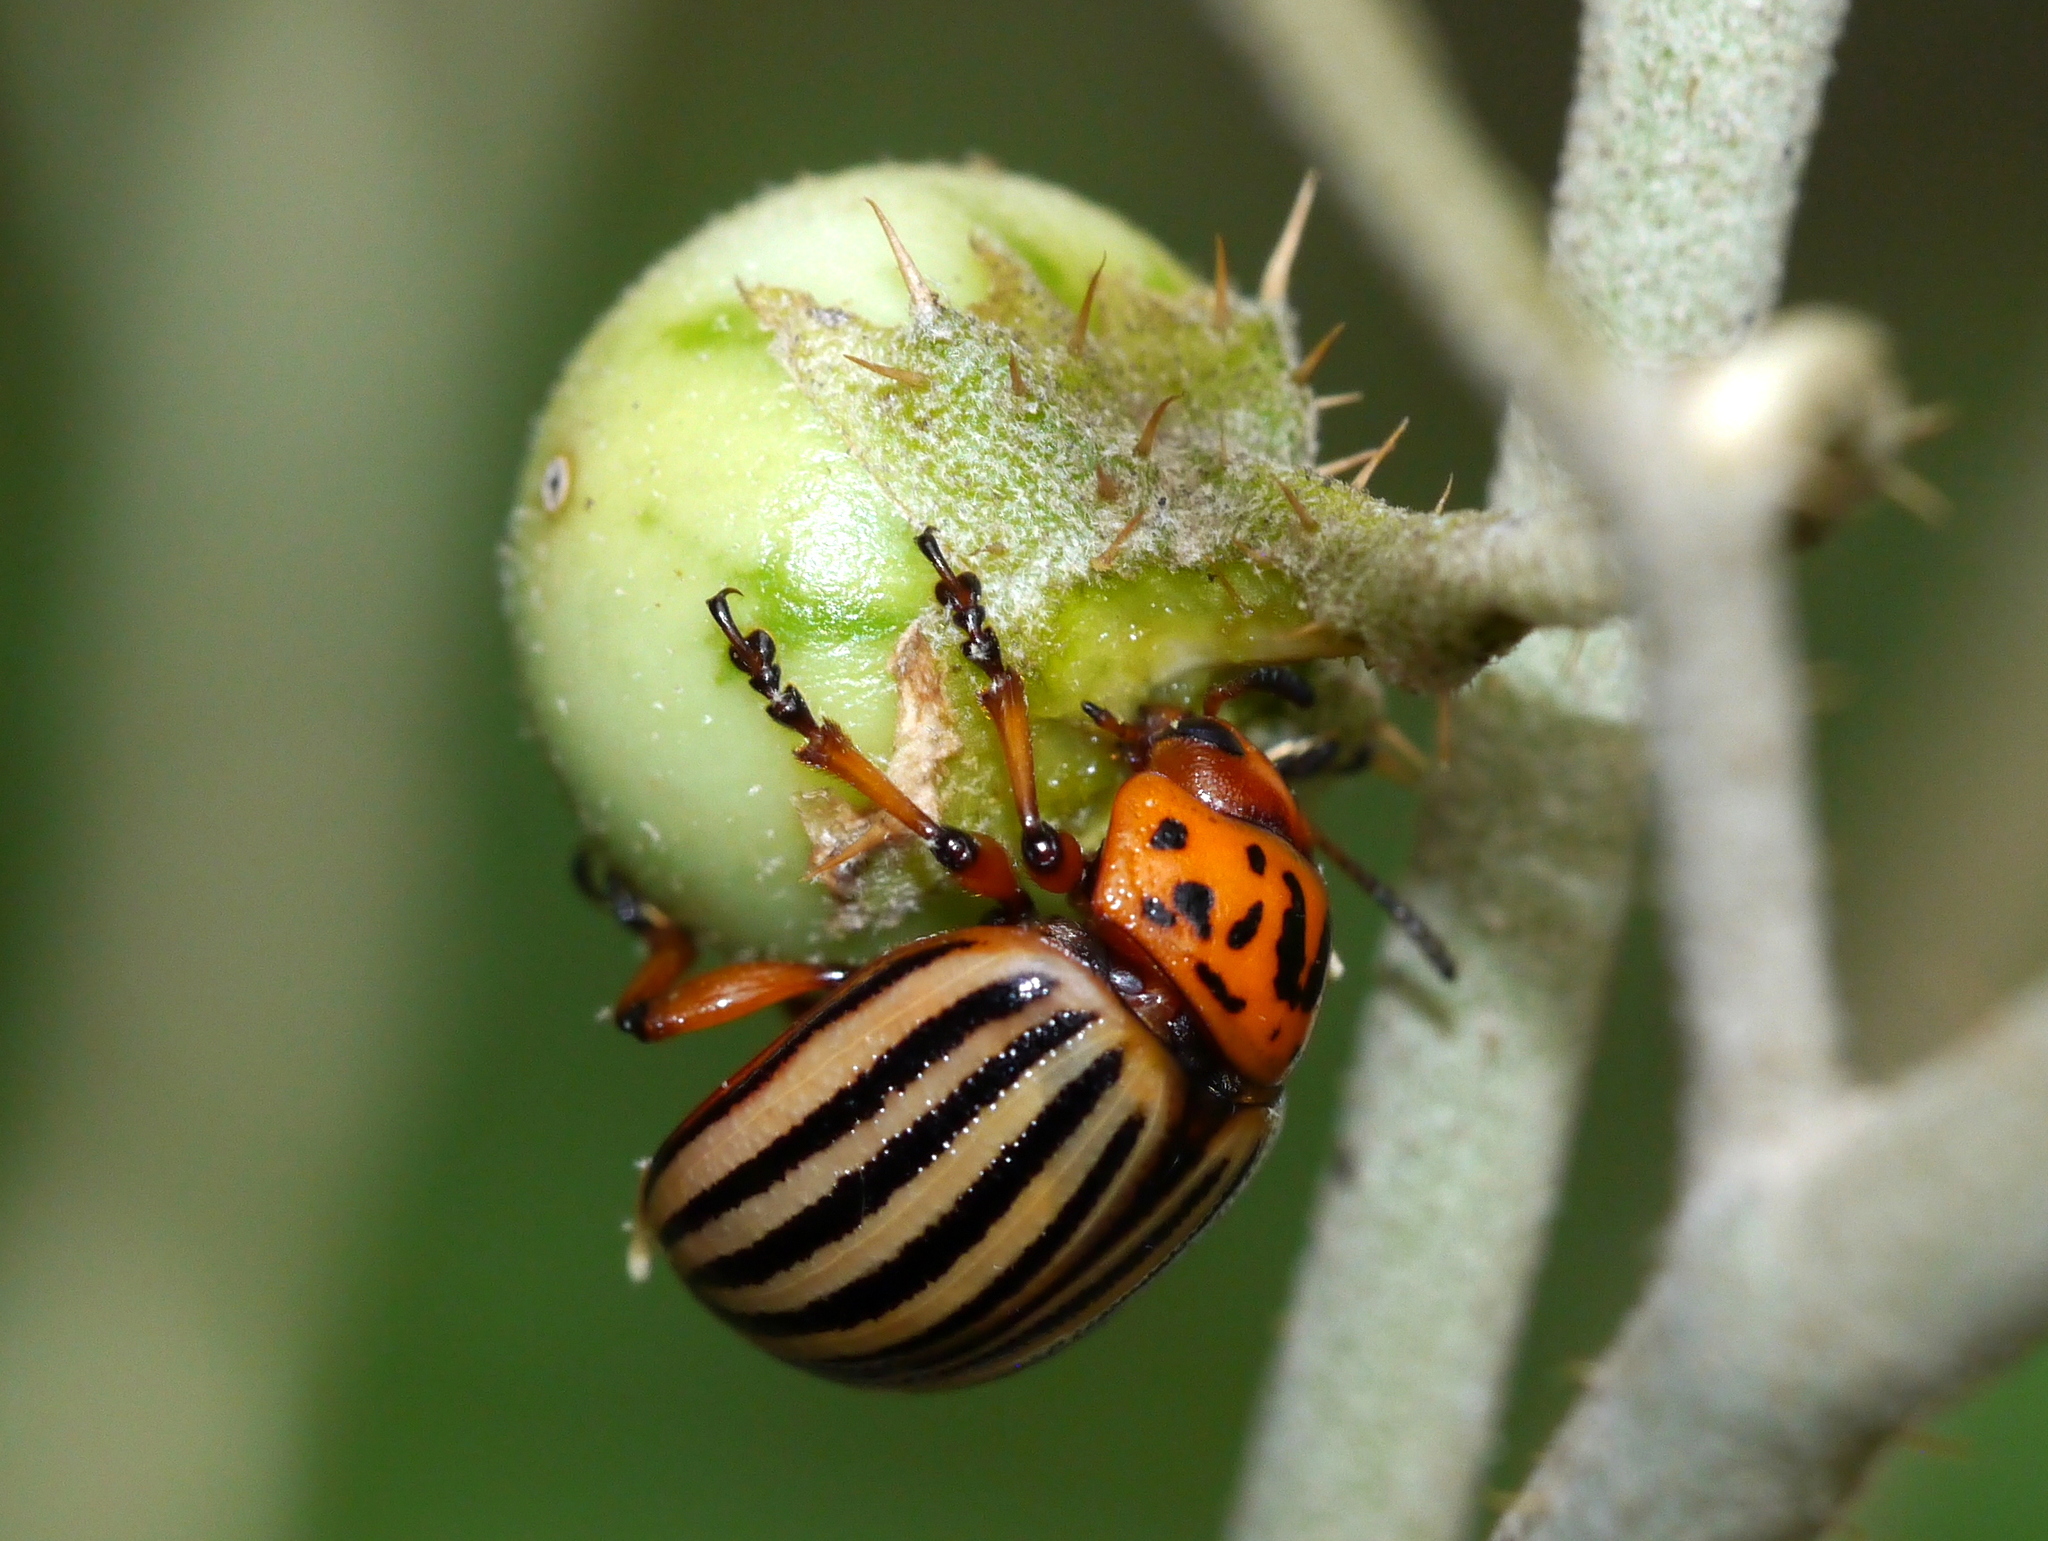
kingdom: Animalia
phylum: Arthropoda
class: Insecta
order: Coleoptera
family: Chrysomelidae
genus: Leptinotarsa
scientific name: Leptinotarsa decemlineata
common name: Colorado potato beetle
